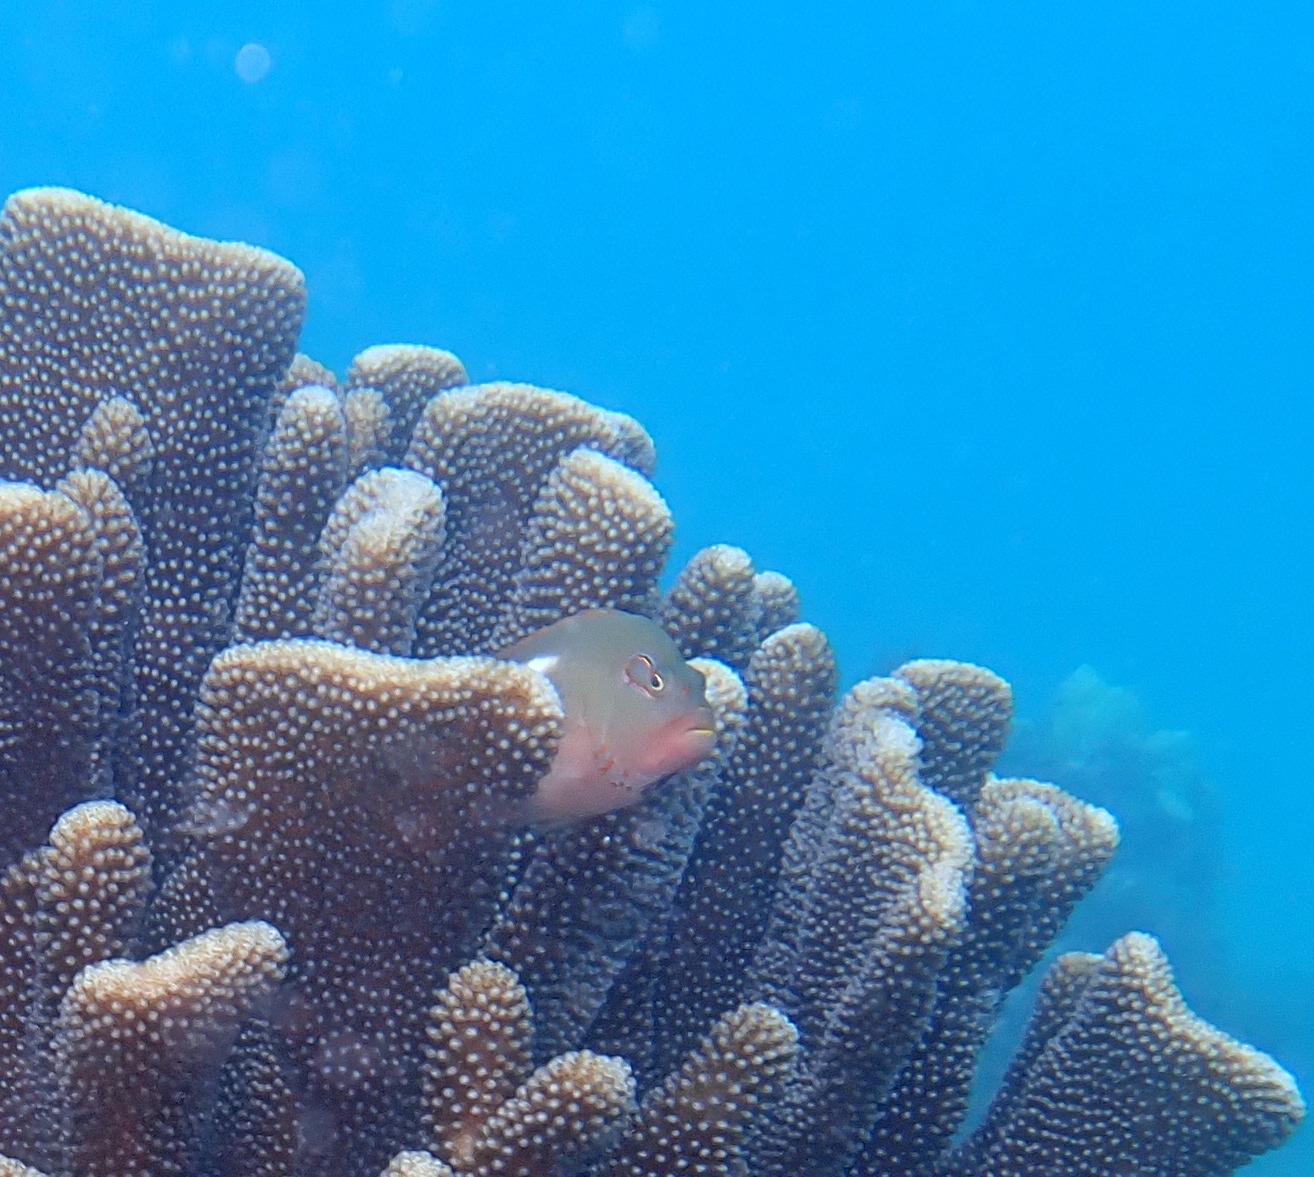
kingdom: Animalia
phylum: Chordata
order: Perciformes
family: Cirrhitidae
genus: Paracirrhites
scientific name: Paracirrhites arcatus
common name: Arc-eye hawkfish
